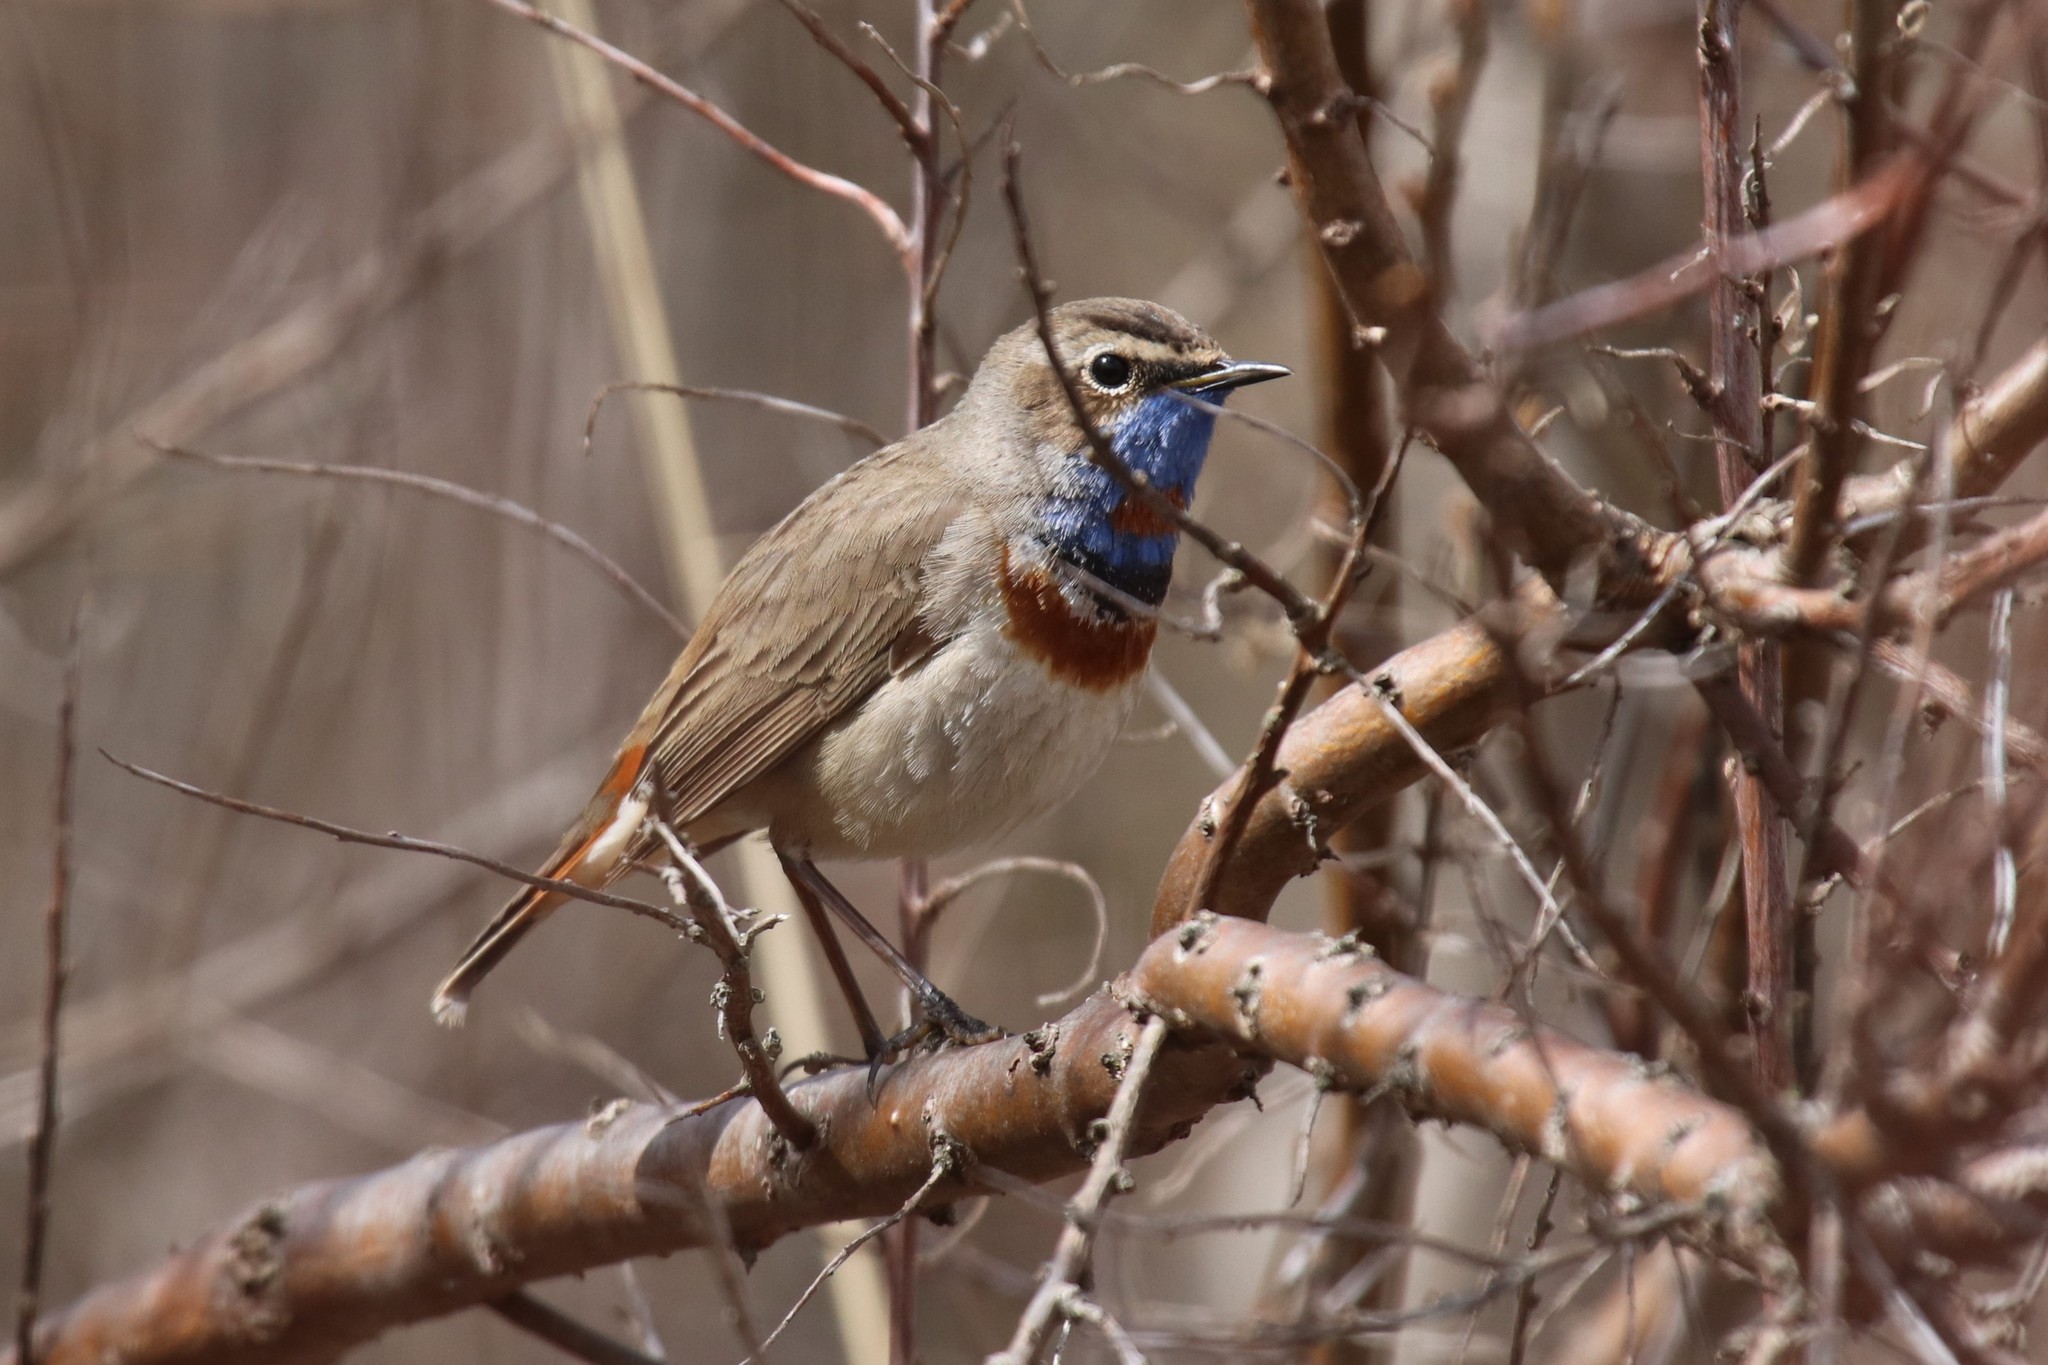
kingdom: Animalia
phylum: Chordata
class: Aves
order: Passeriformes
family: Muscicapidae
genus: Luscinia
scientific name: Luscinia svecica
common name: Bluethroat
